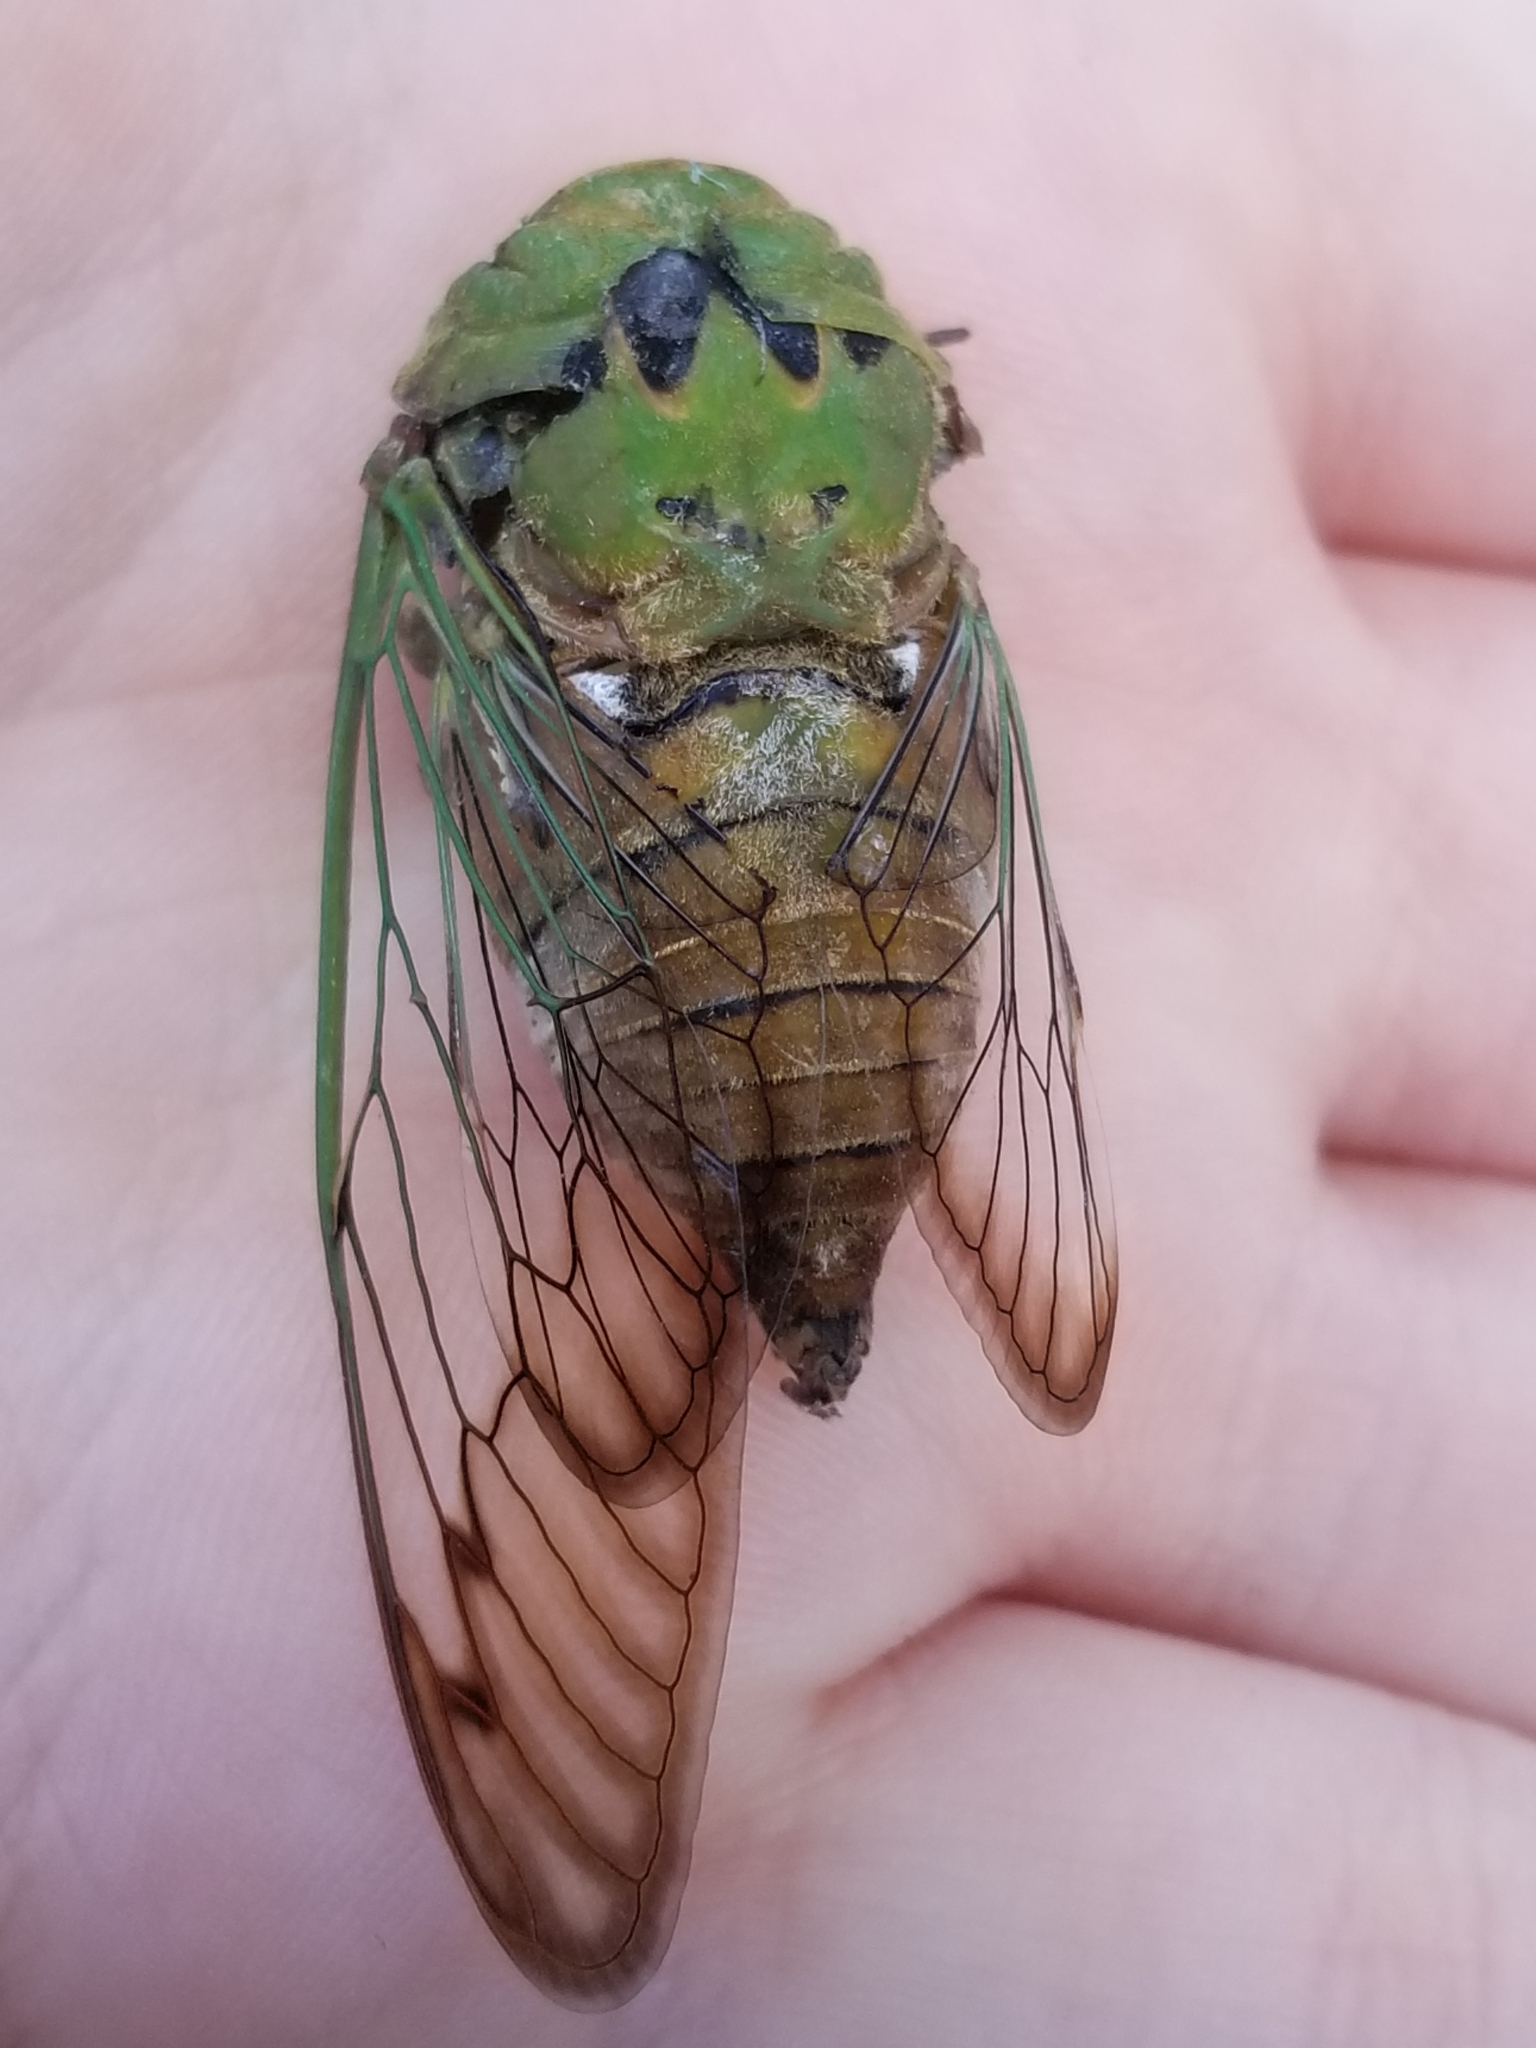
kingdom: Animalia
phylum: Arthropoda
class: Insecta
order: Hemiptera
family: Cicadidae
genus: Neotibicen
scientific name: Neotibicen superbus
